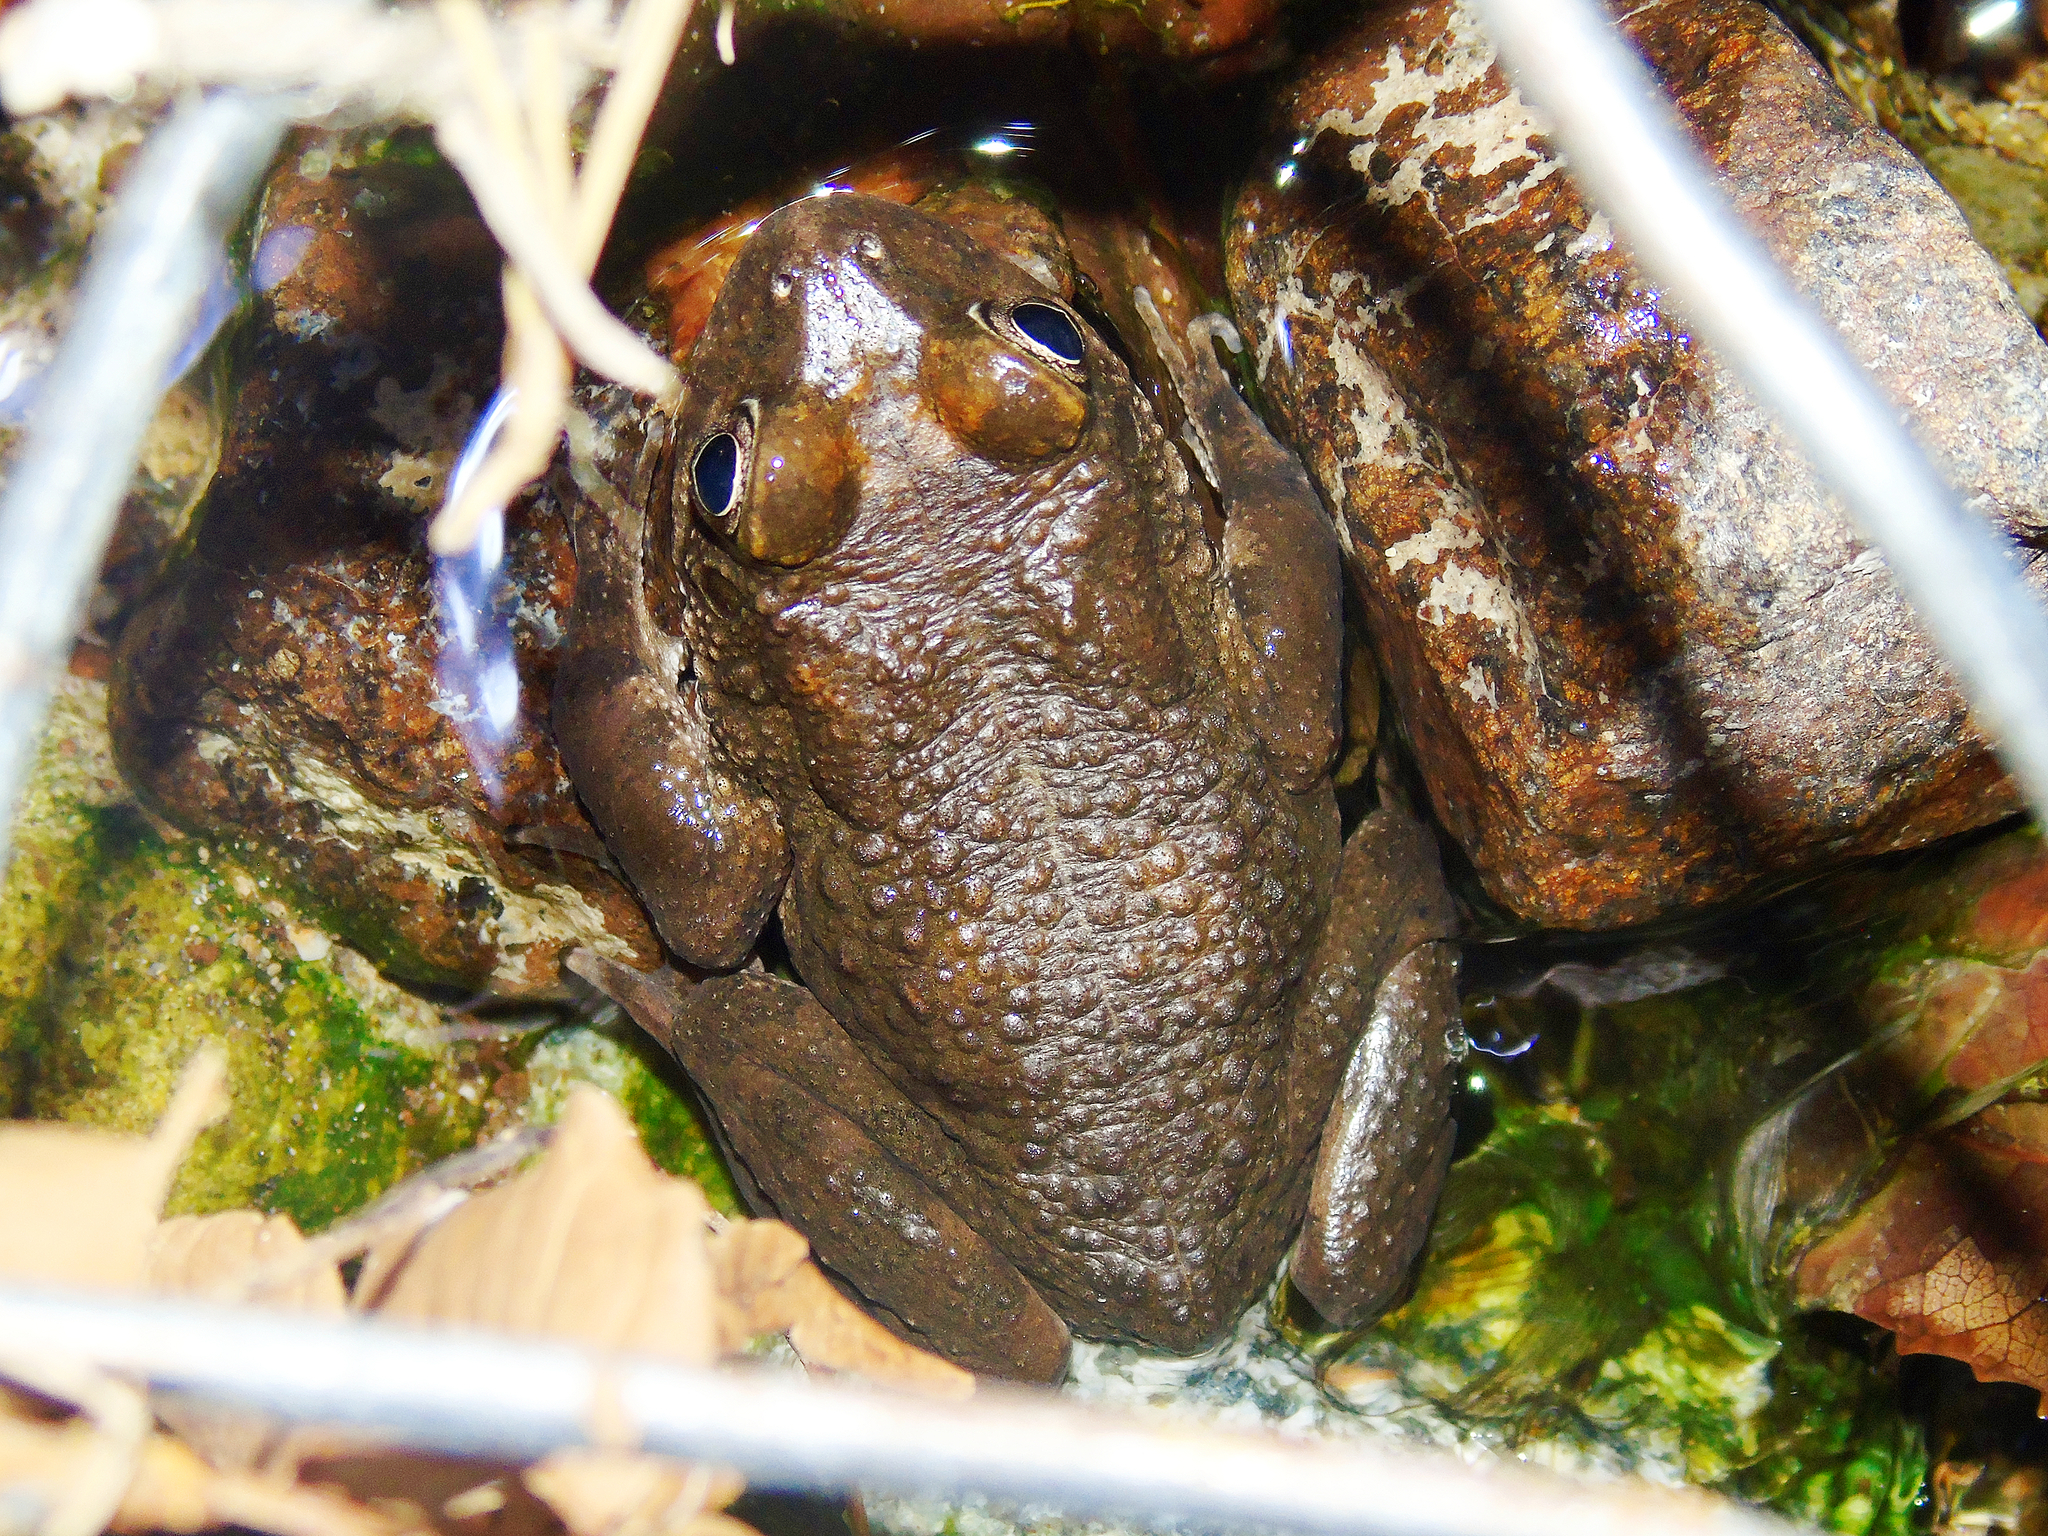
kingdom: Animalia
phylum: Chordata
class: Amphibia
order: Anura
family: Bufonidae
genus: Sclerophrys
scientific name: Sclerophrys arabica
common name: Arabian toad
